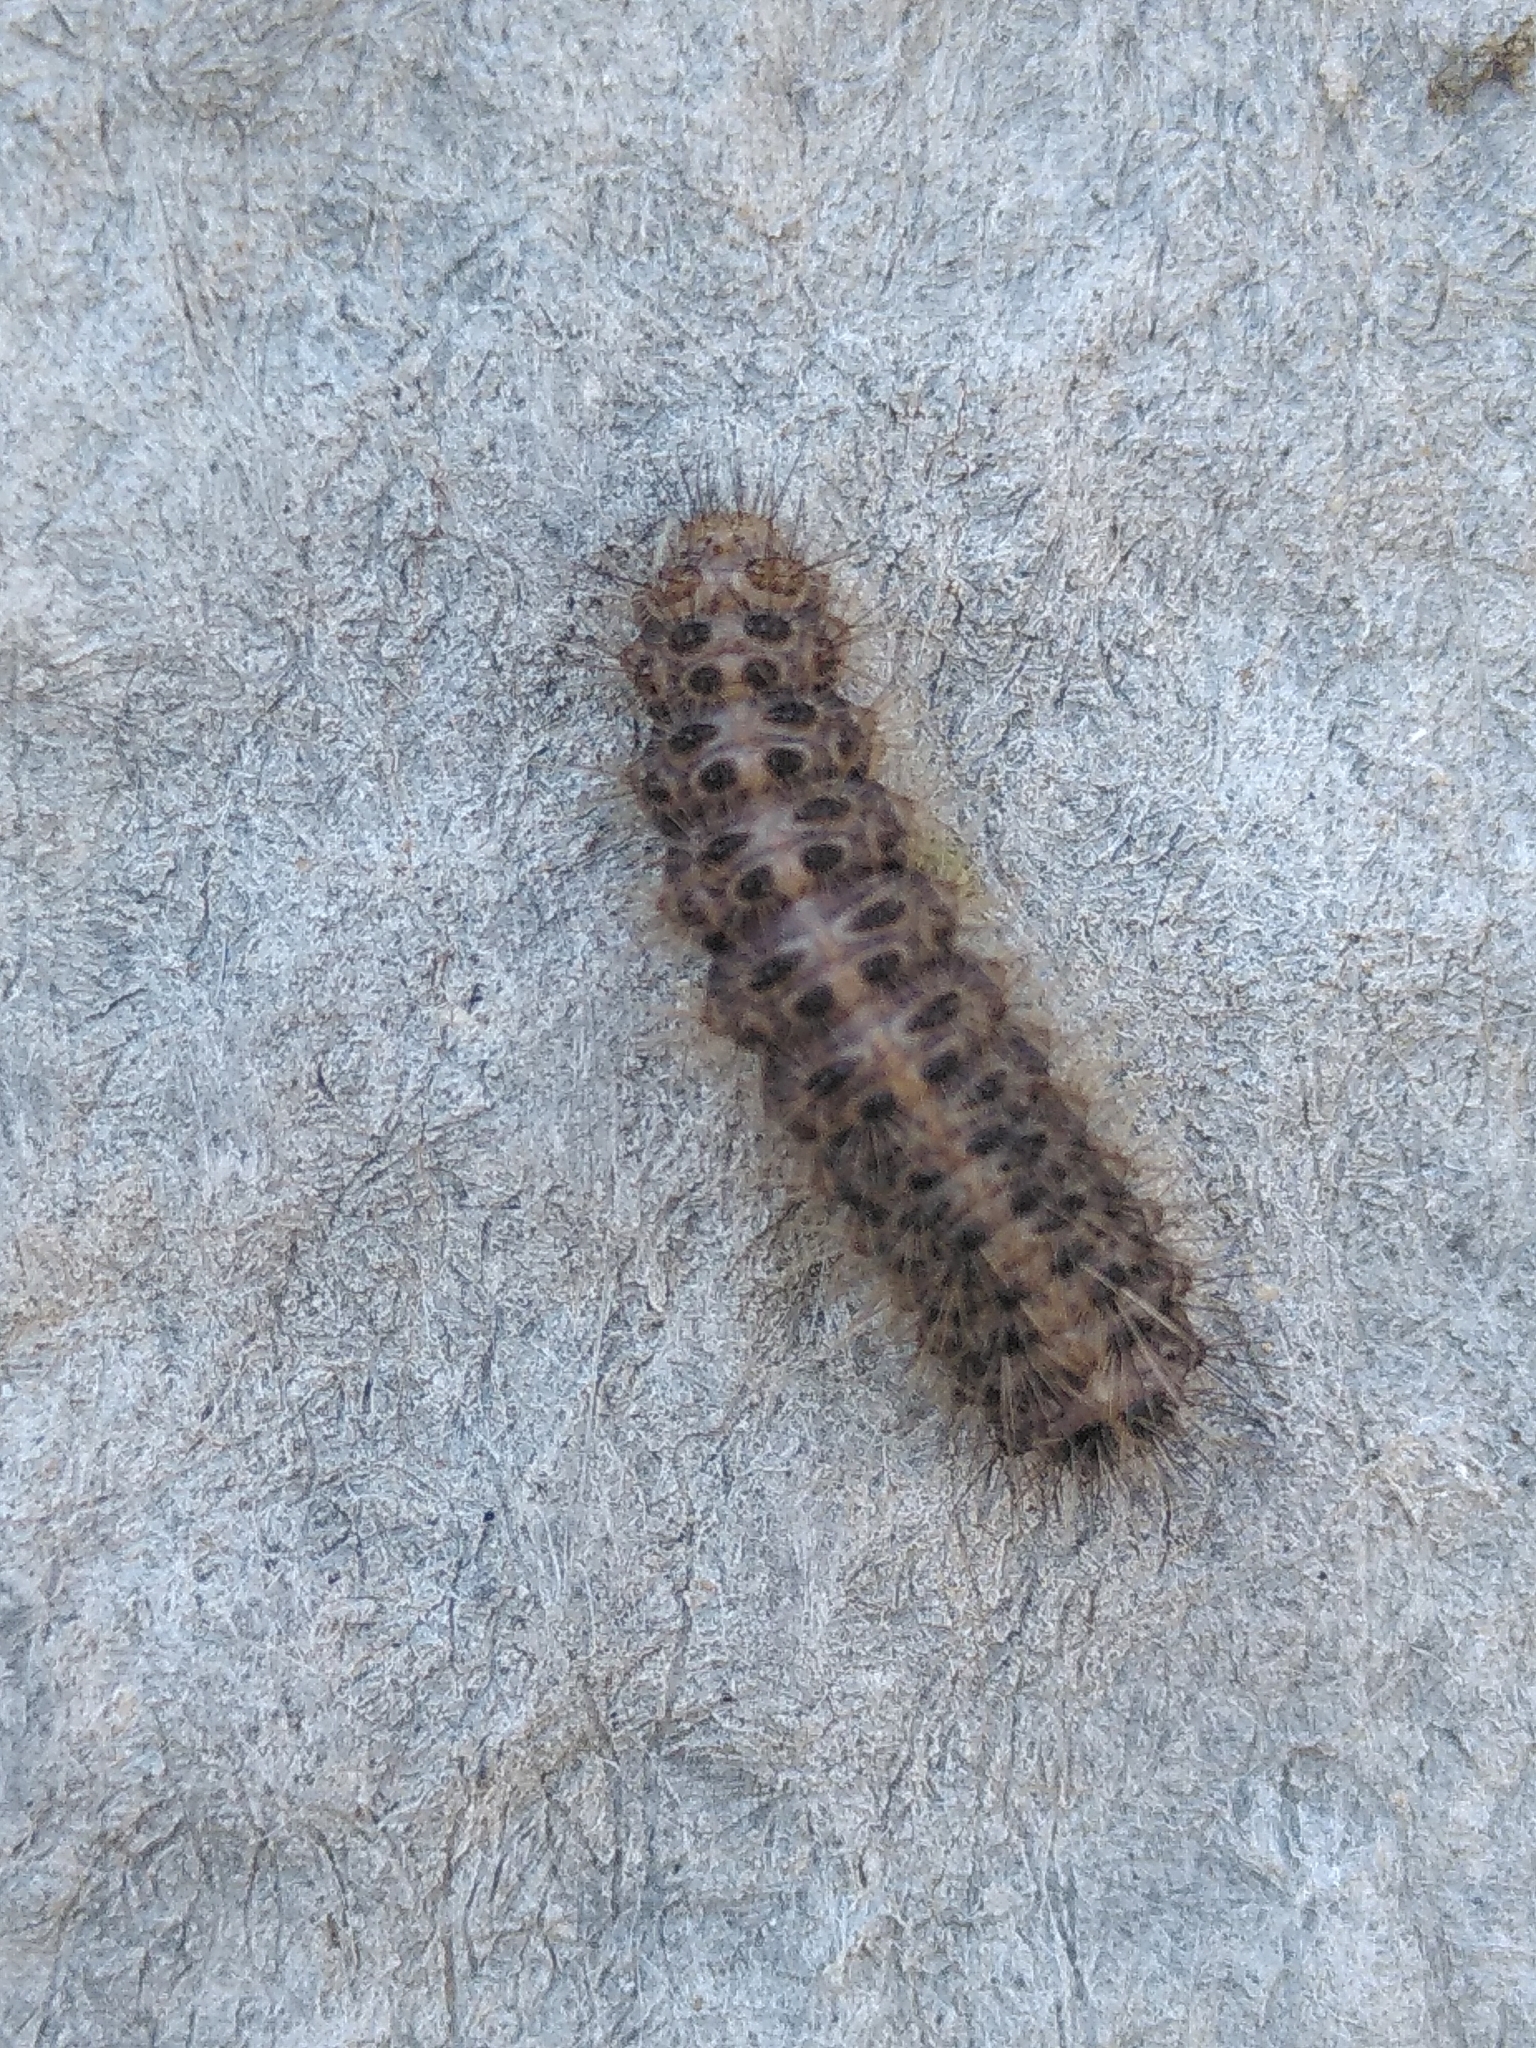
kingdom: Animalia
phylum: Arthropoda
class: Insecta
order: Lepidoptera
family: Erebidae
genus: Cymbalophora
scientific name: Cymbalophora pudica
